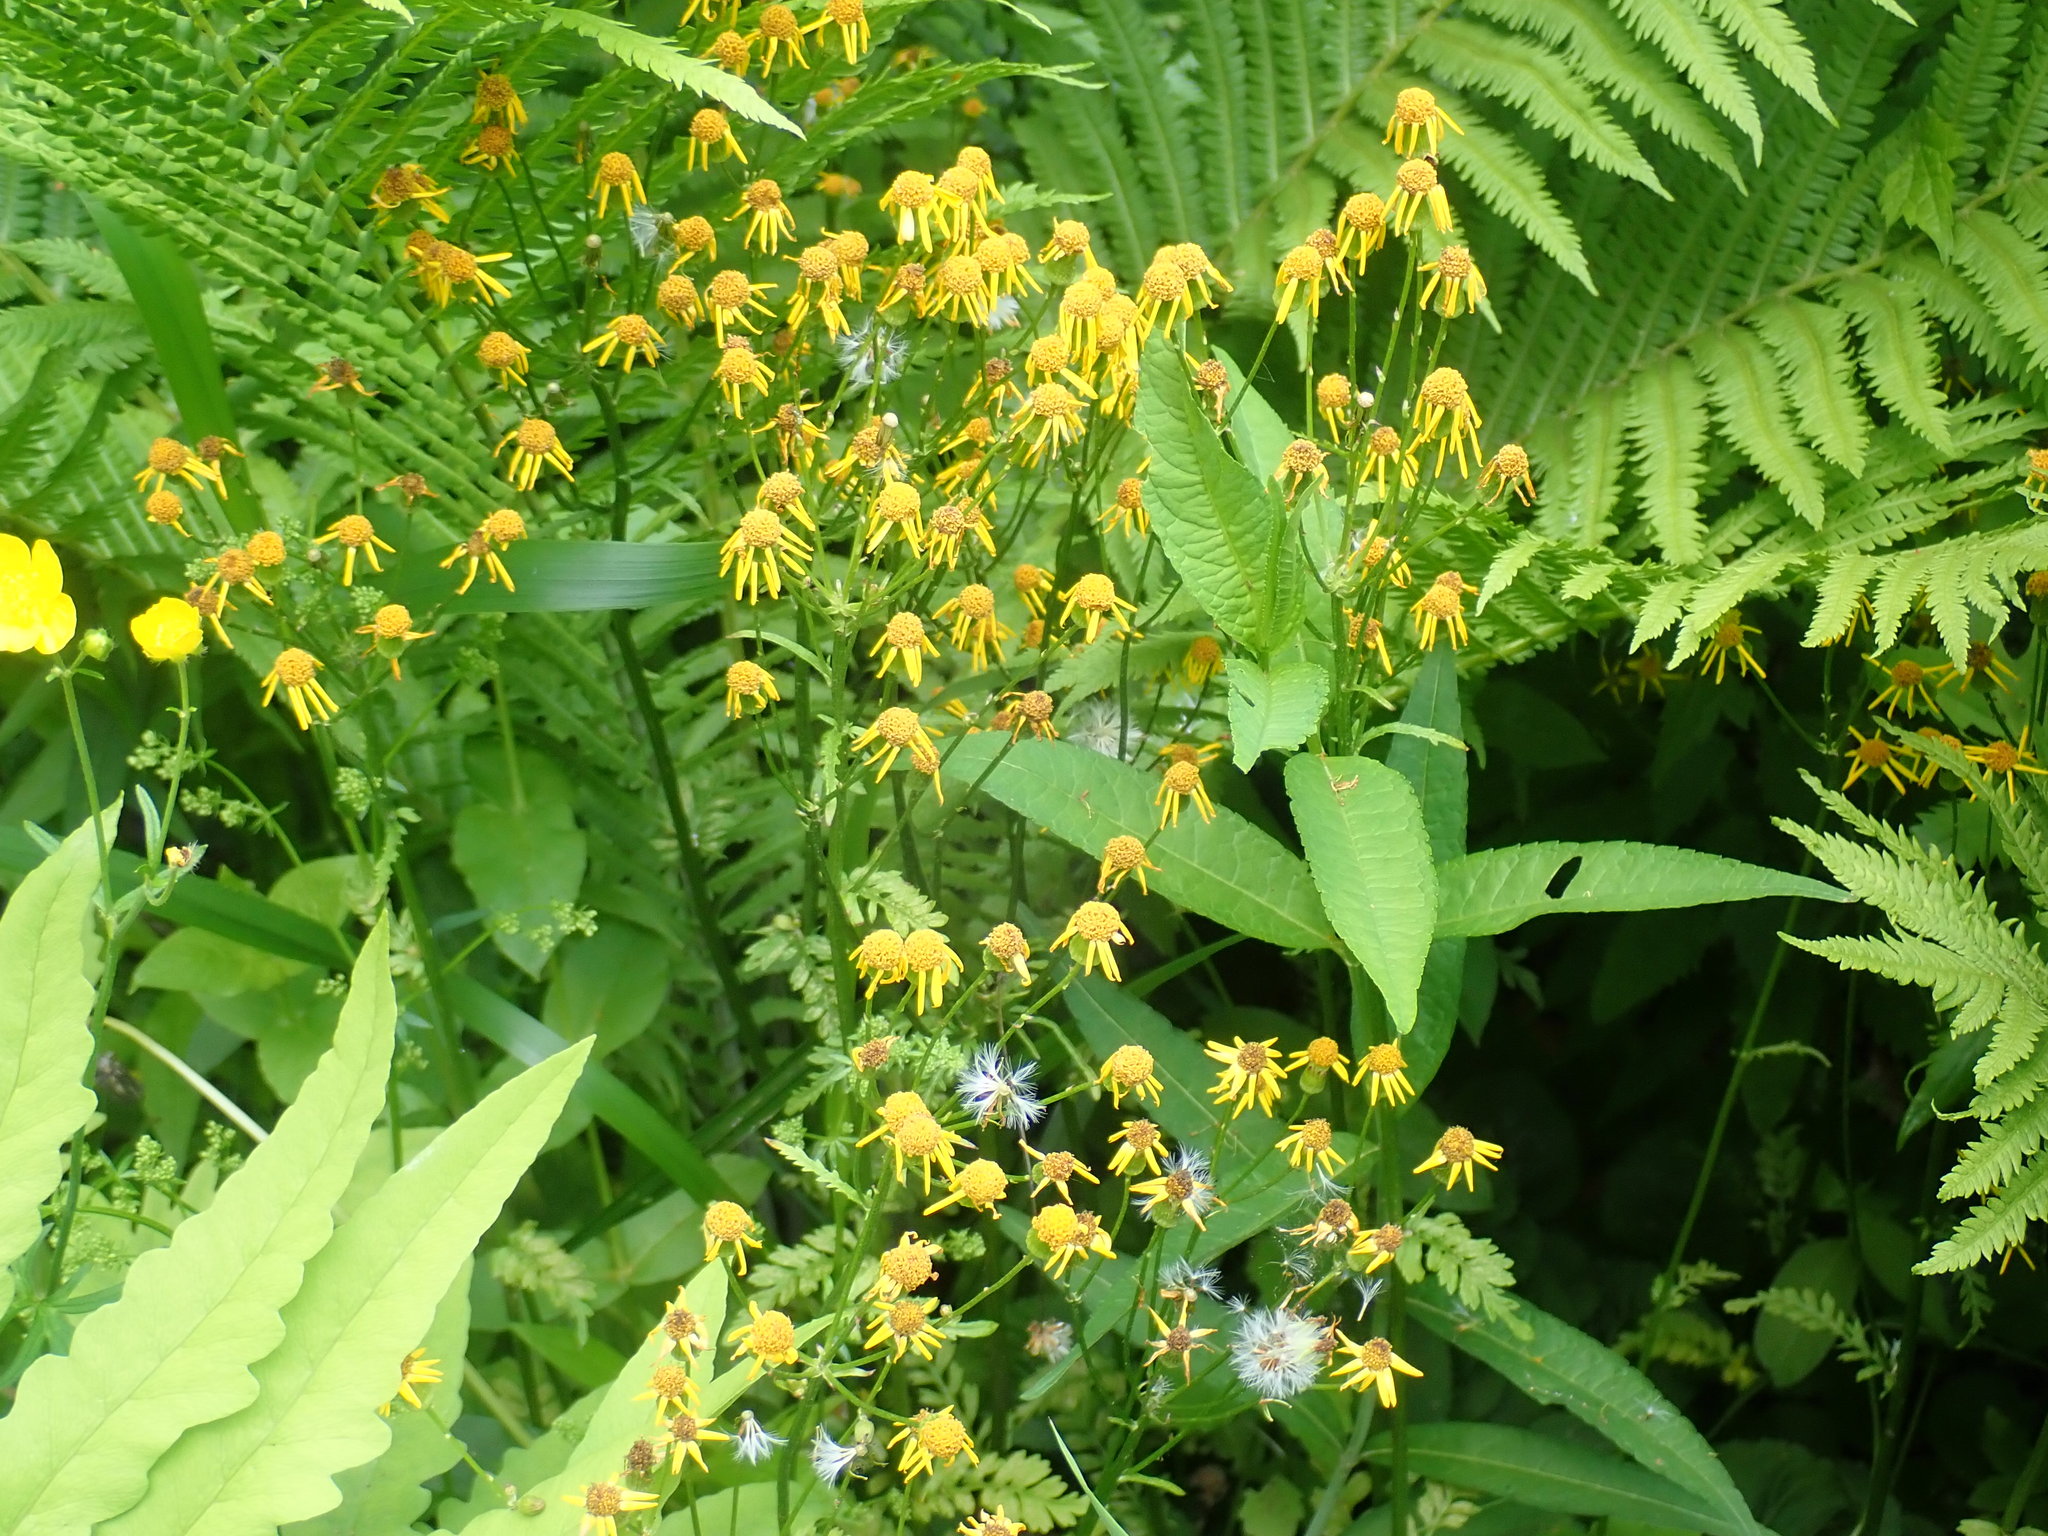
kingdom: Plantae
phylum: Tracheophyta
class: Magnoliopsida
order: Asterales
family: Asteraceae
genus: Packera
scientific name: Packera aurea
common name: Golden groundsel
